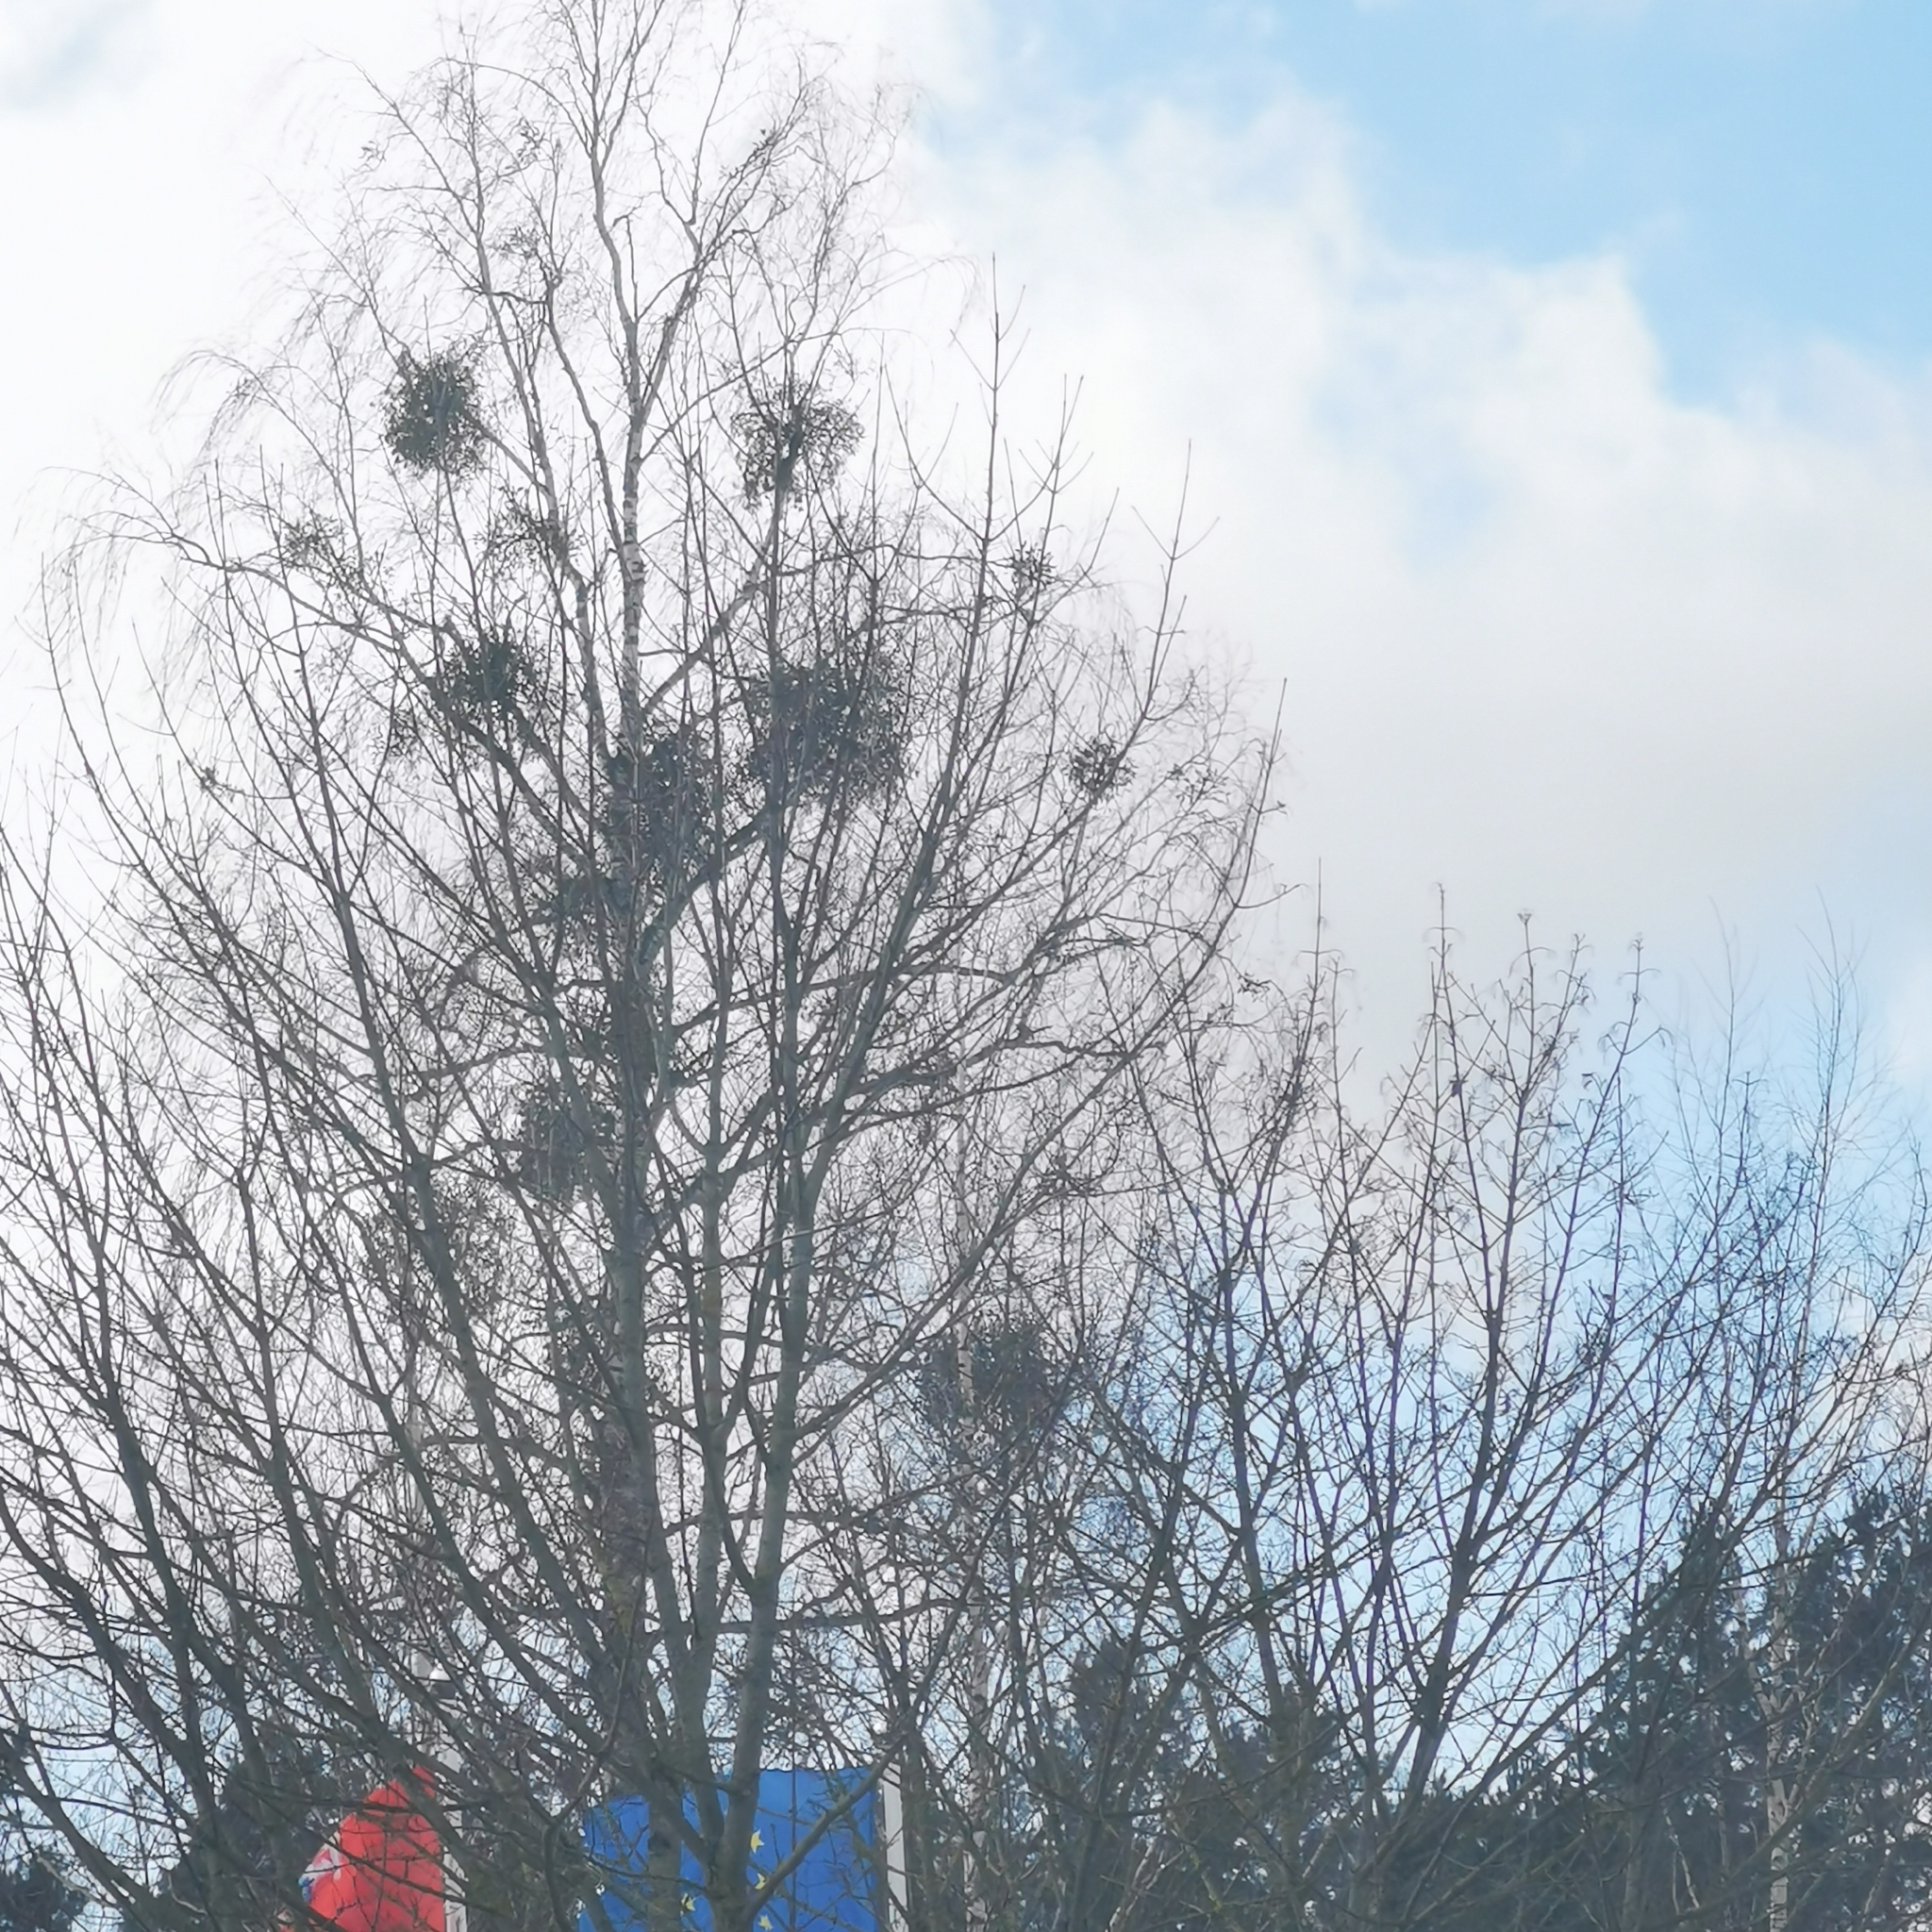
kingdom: Plantae
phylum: Tracheophyta
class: Magnoliopsida
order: Santalales
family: Viscaceae
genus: Viscum
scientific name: Viscum album
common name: Mistletoe
